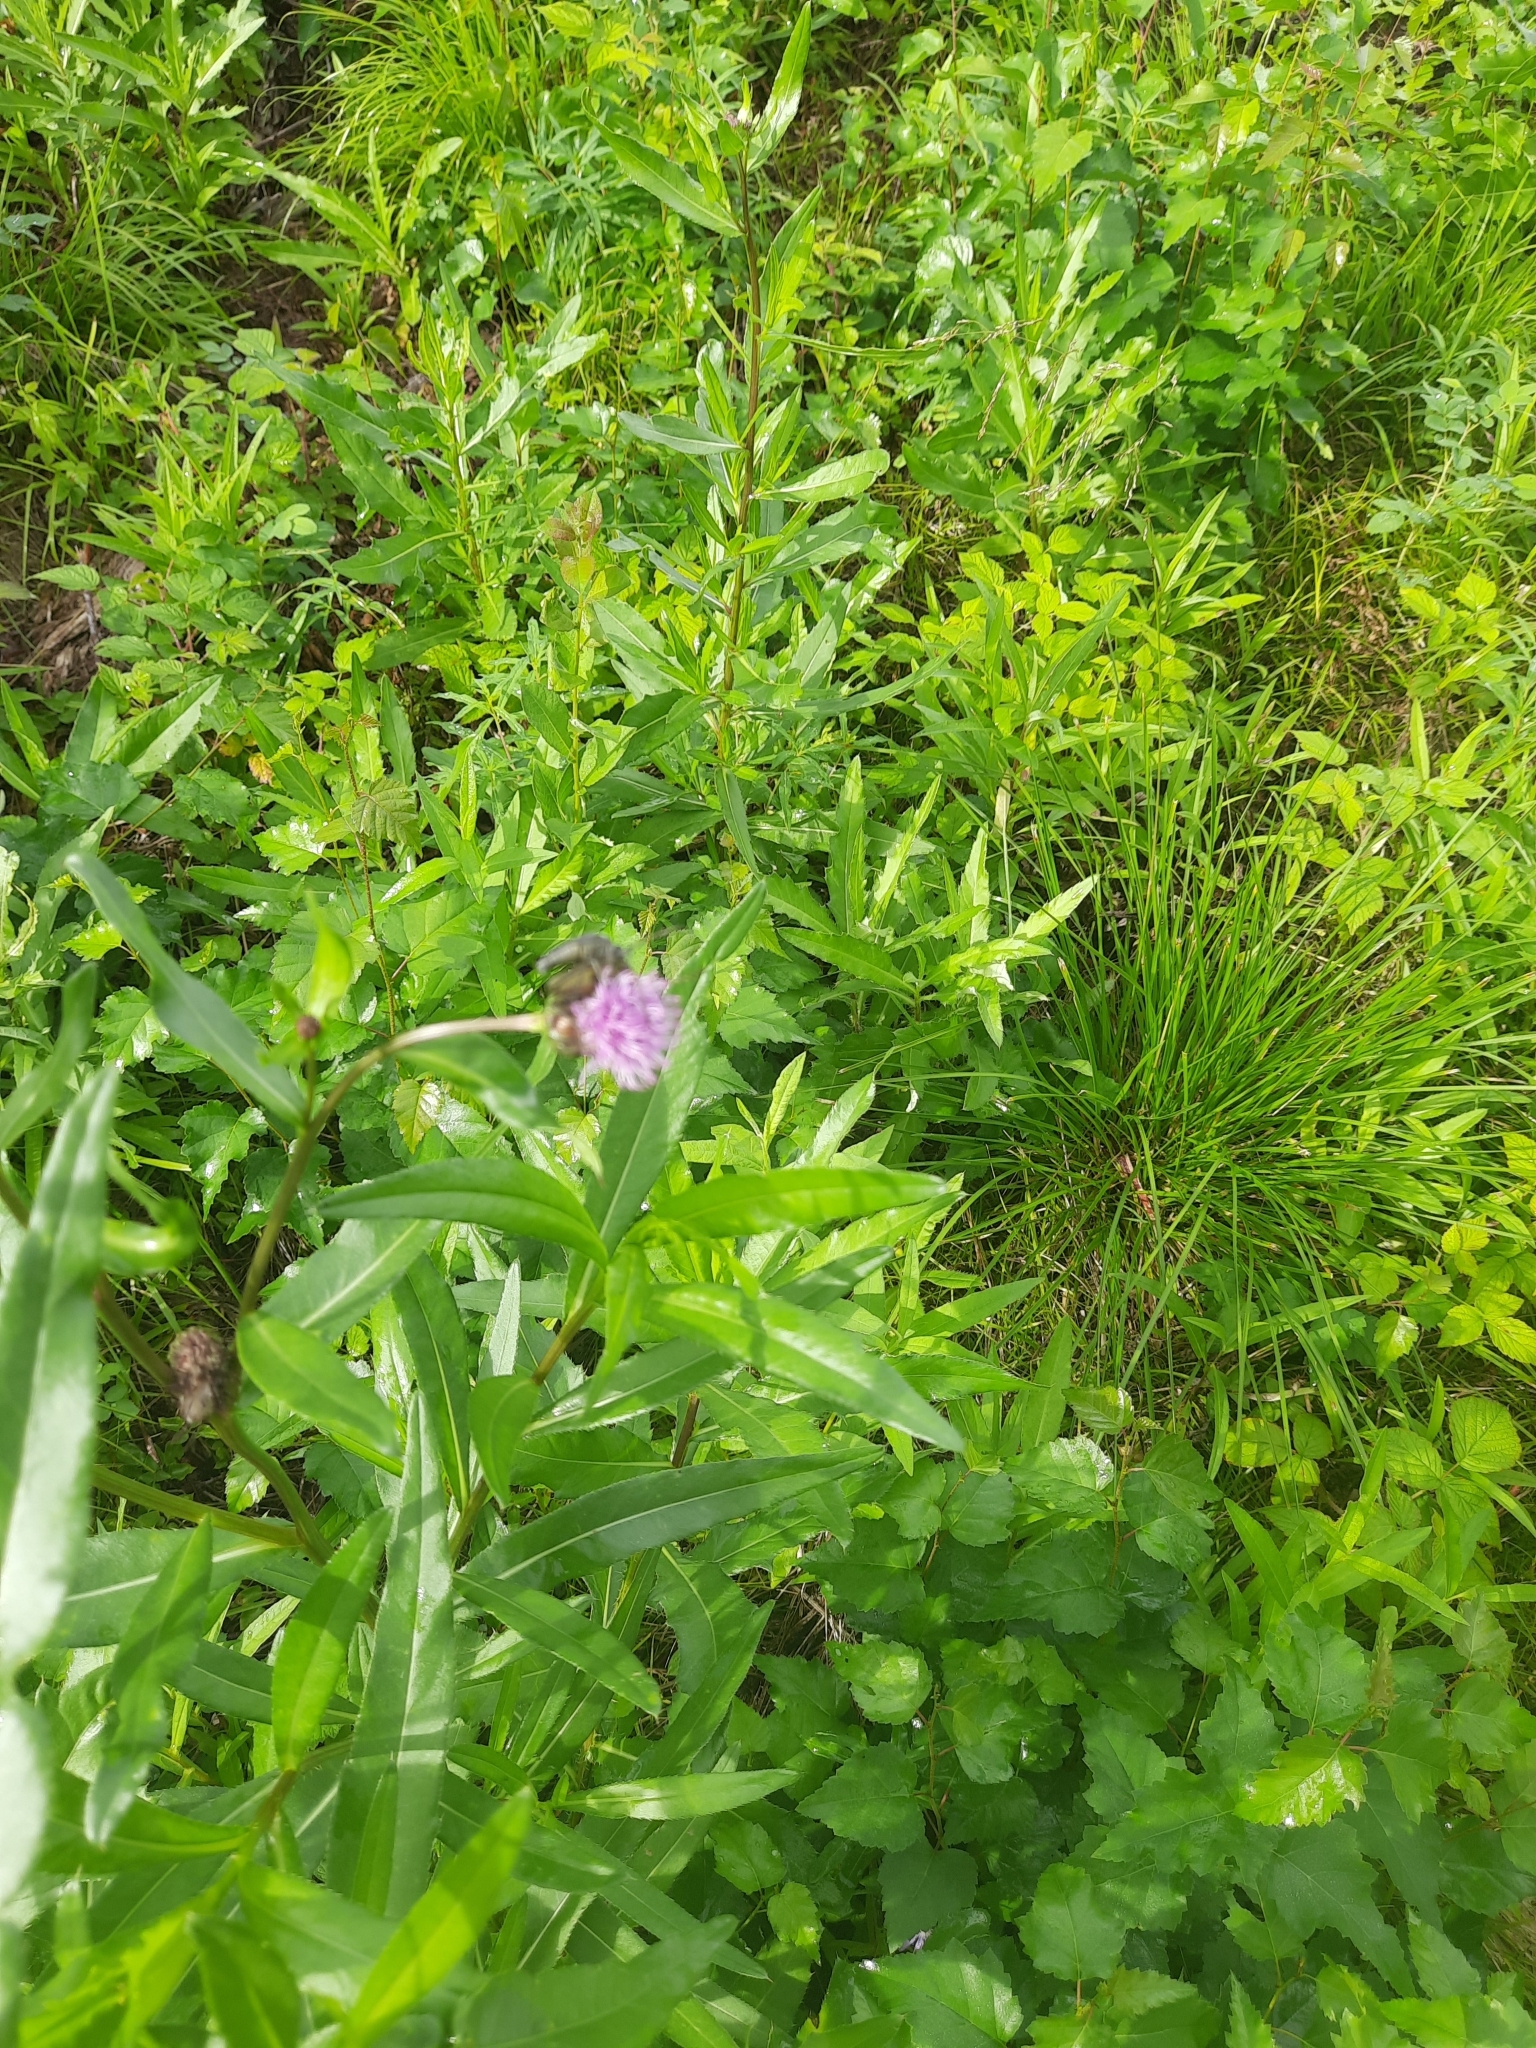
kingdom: Plantae
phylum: Tracheophyta
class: Magnoliopsida
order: Asterales
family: Asteraceae
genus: Cirsium
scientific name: Cirsium arvense
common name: Creeping thistle
